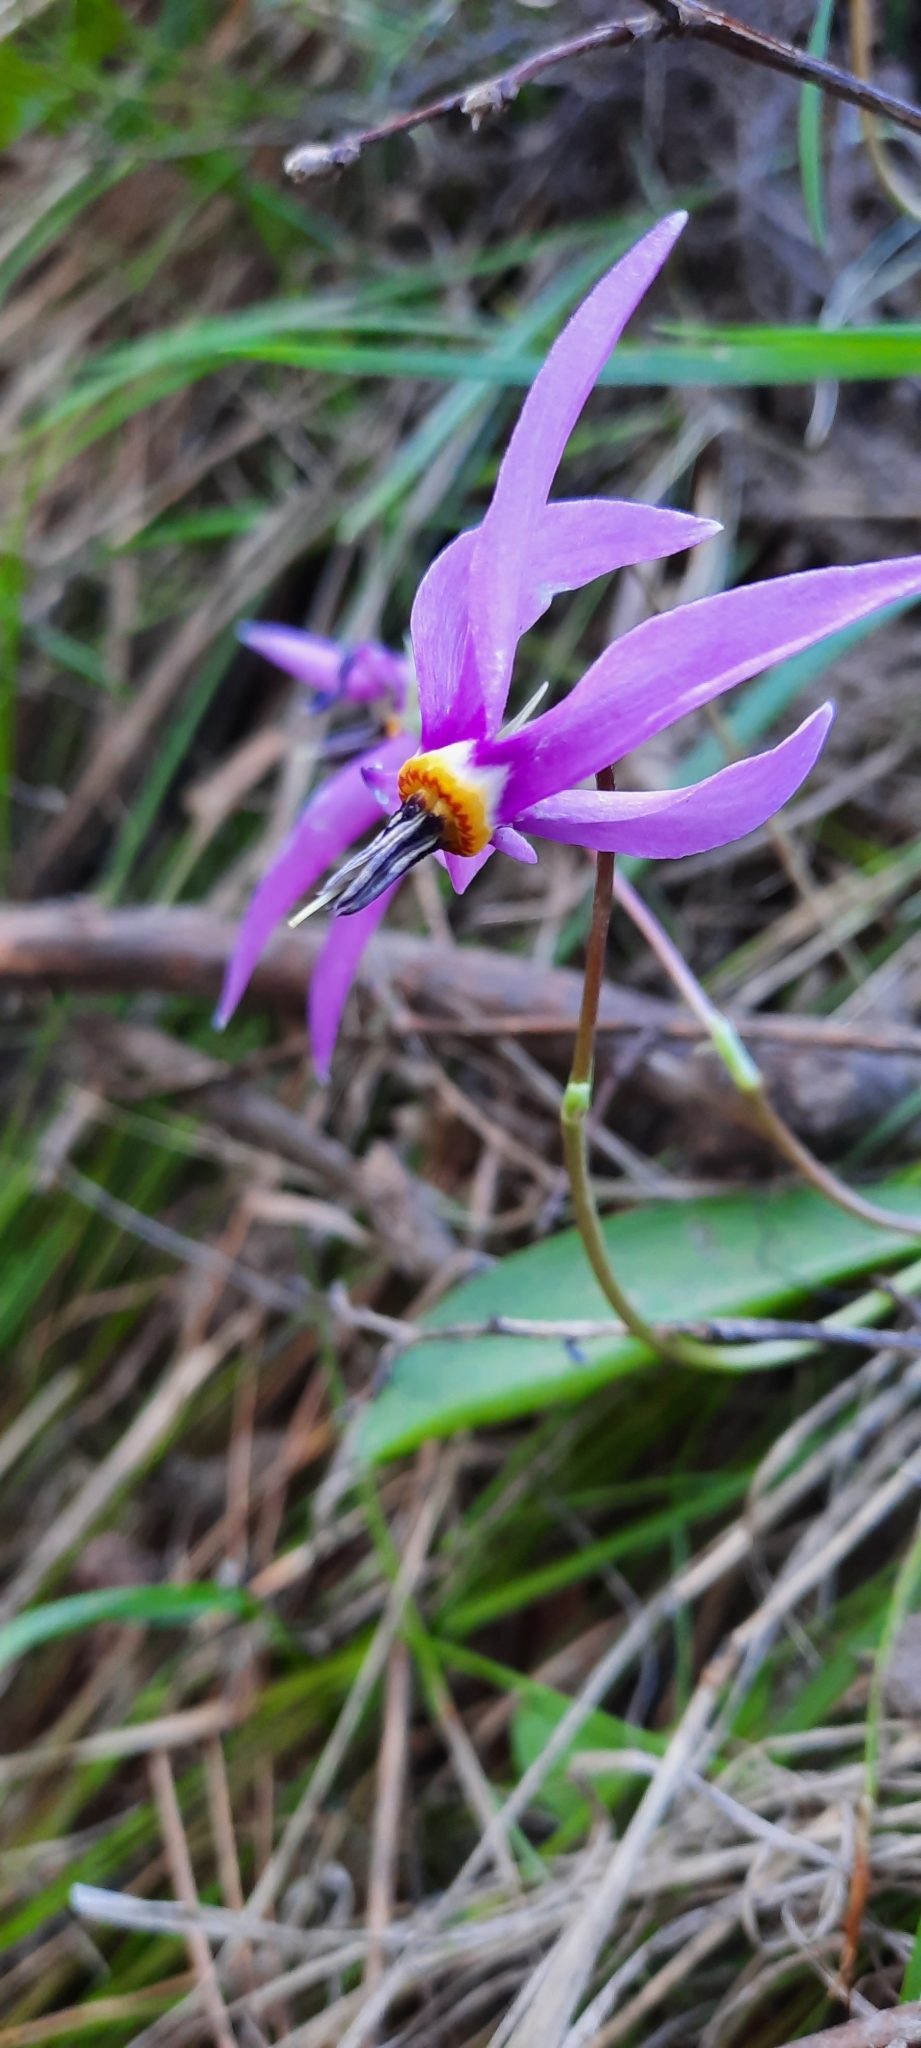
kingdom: Plantae
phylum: Tracheophyta
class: Magnoliopsida
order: Ericales
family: Primulaceae
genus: Dodecatheon
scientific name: Dodecatheon pulchellum
